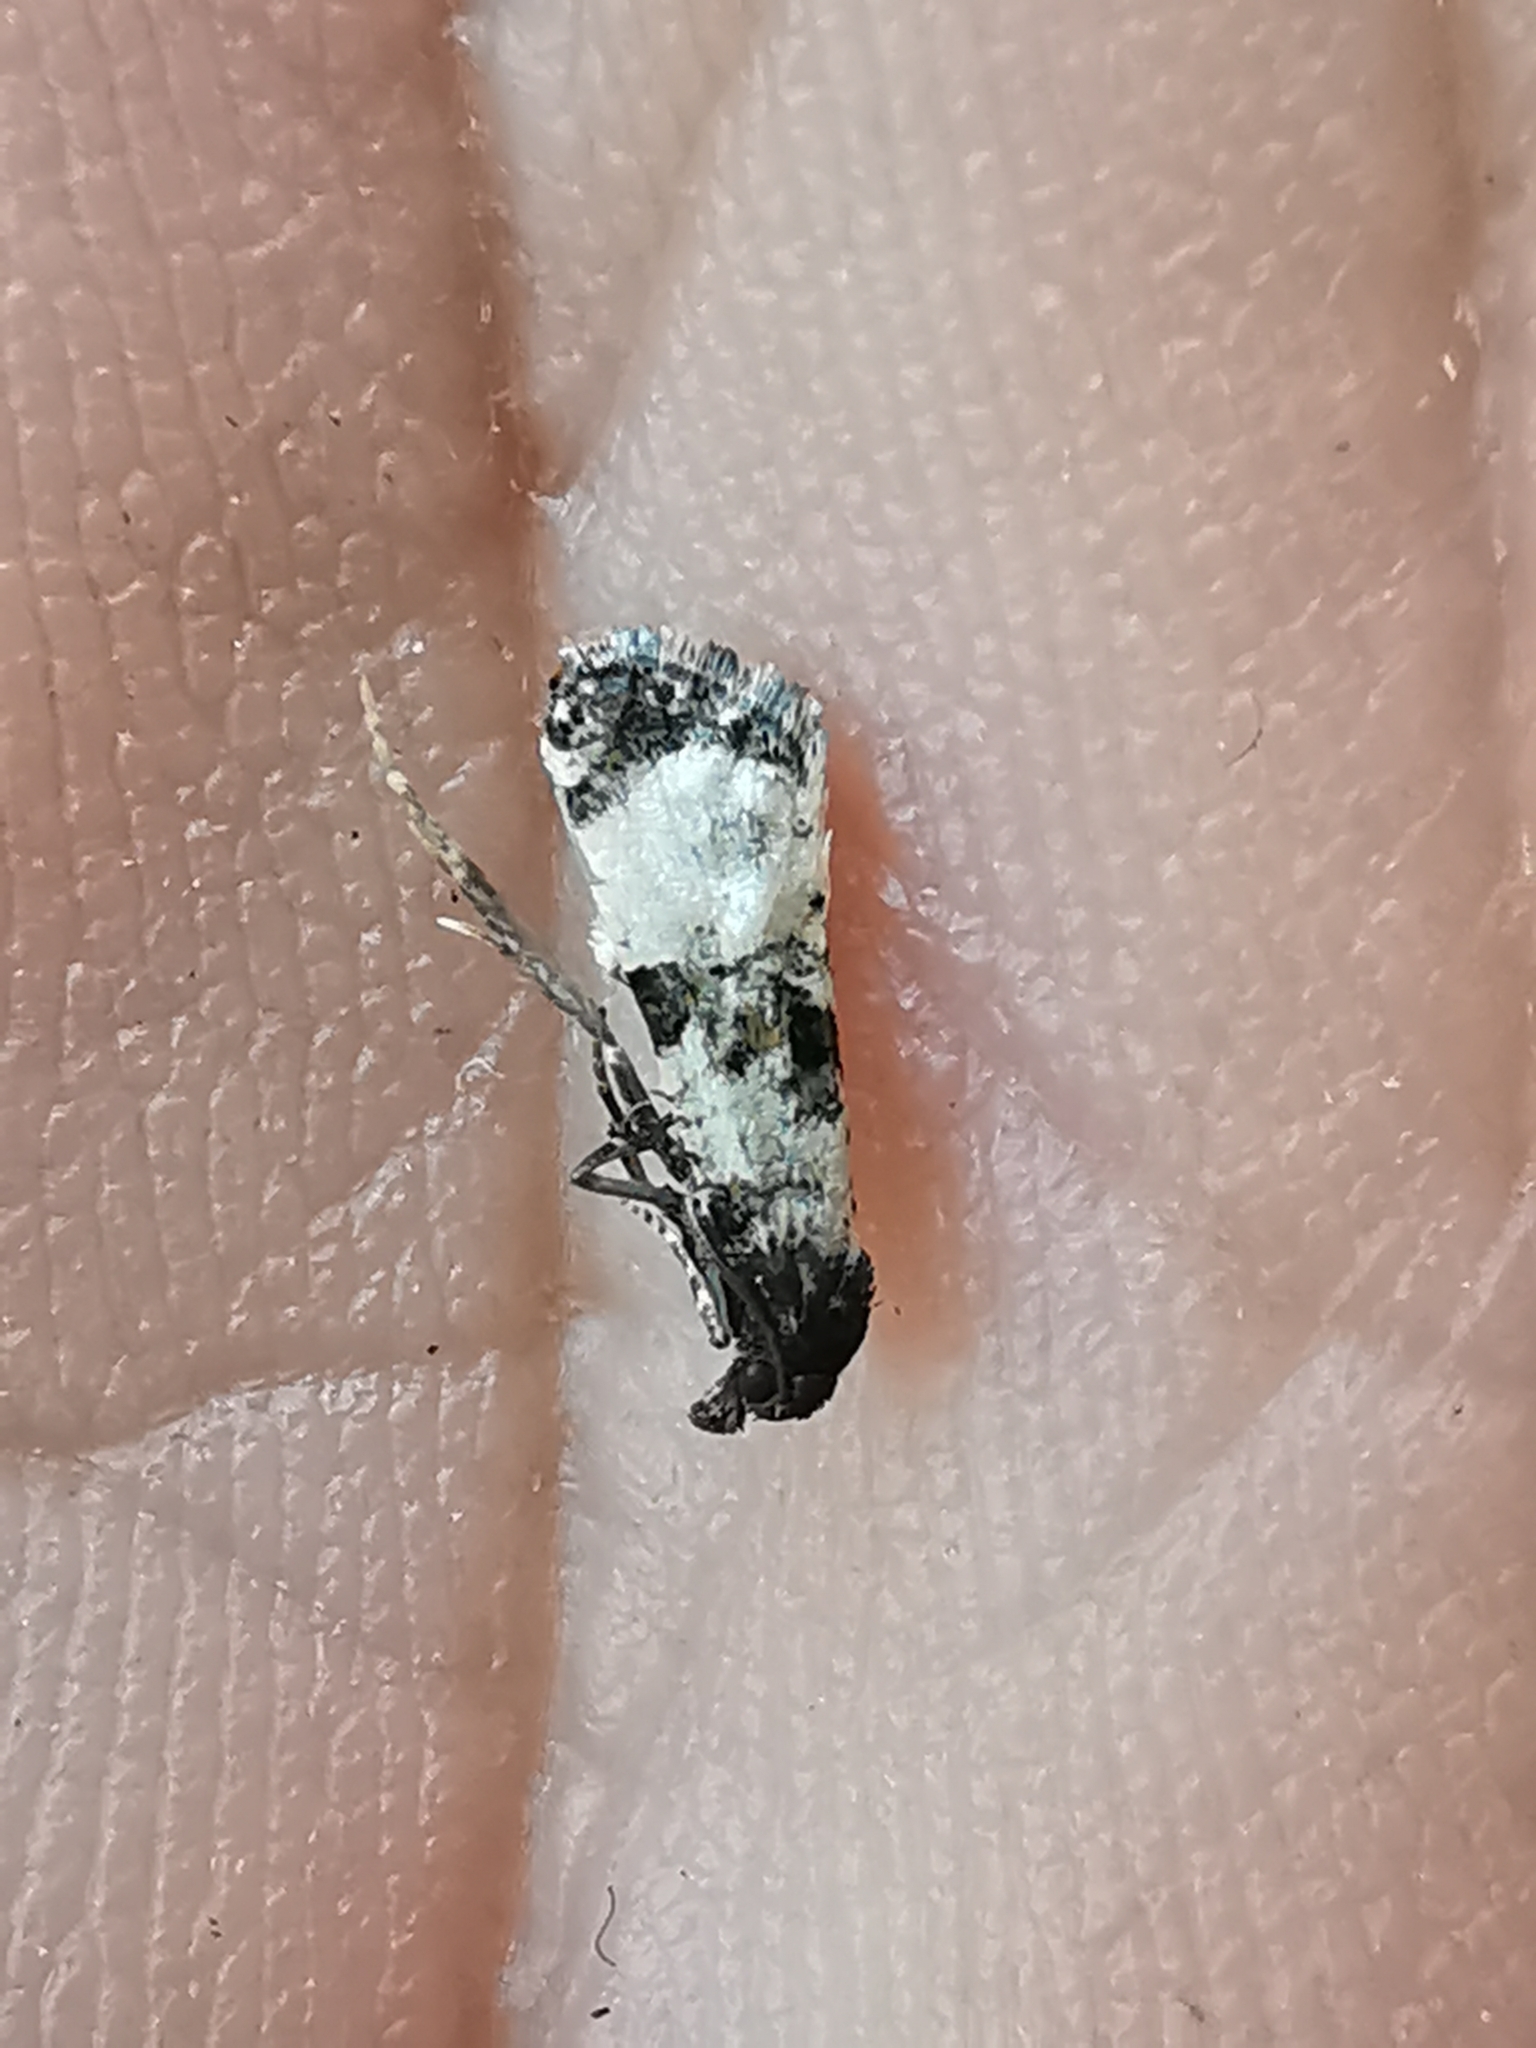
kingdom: Animalia
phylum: Arthropoda
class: Insecta
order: Lepidoptera
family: Tortricidae
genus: Cochylis
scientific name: Cochylis atricapitana
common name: Tortricid moth
